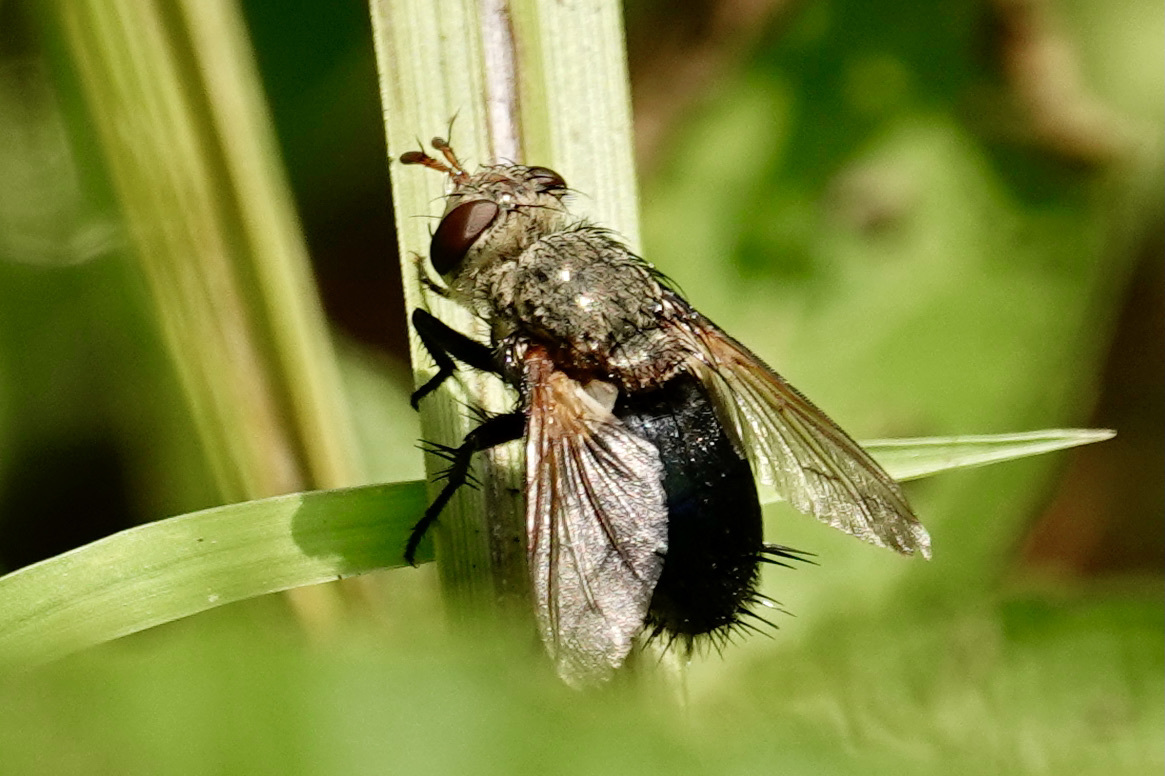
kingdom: Animalia
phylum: Arthropoda
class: Insecta
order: Diptera
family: Tachinidae
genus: Archytas
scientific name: Archytas
